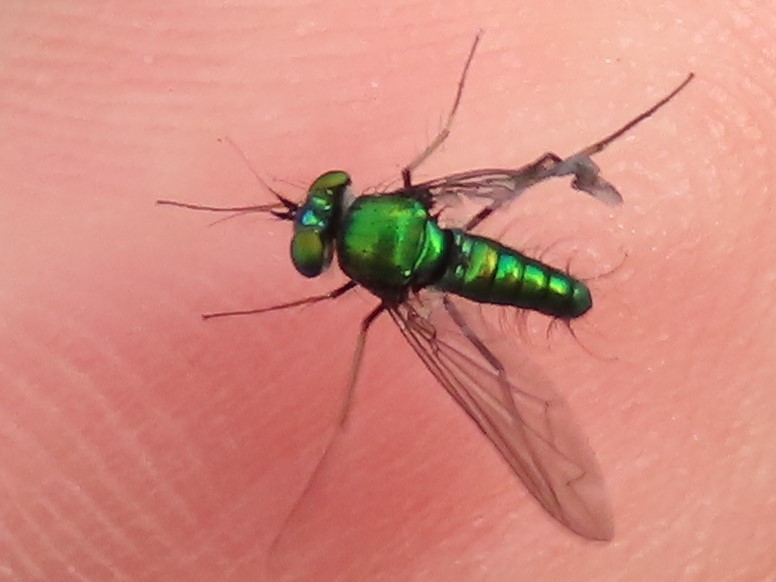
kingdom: Animalia
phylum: Arthropoda
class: Insecta
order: Diptera
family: Dolichopodidae
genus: Condylostylus
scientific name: Condylostylus comatus
